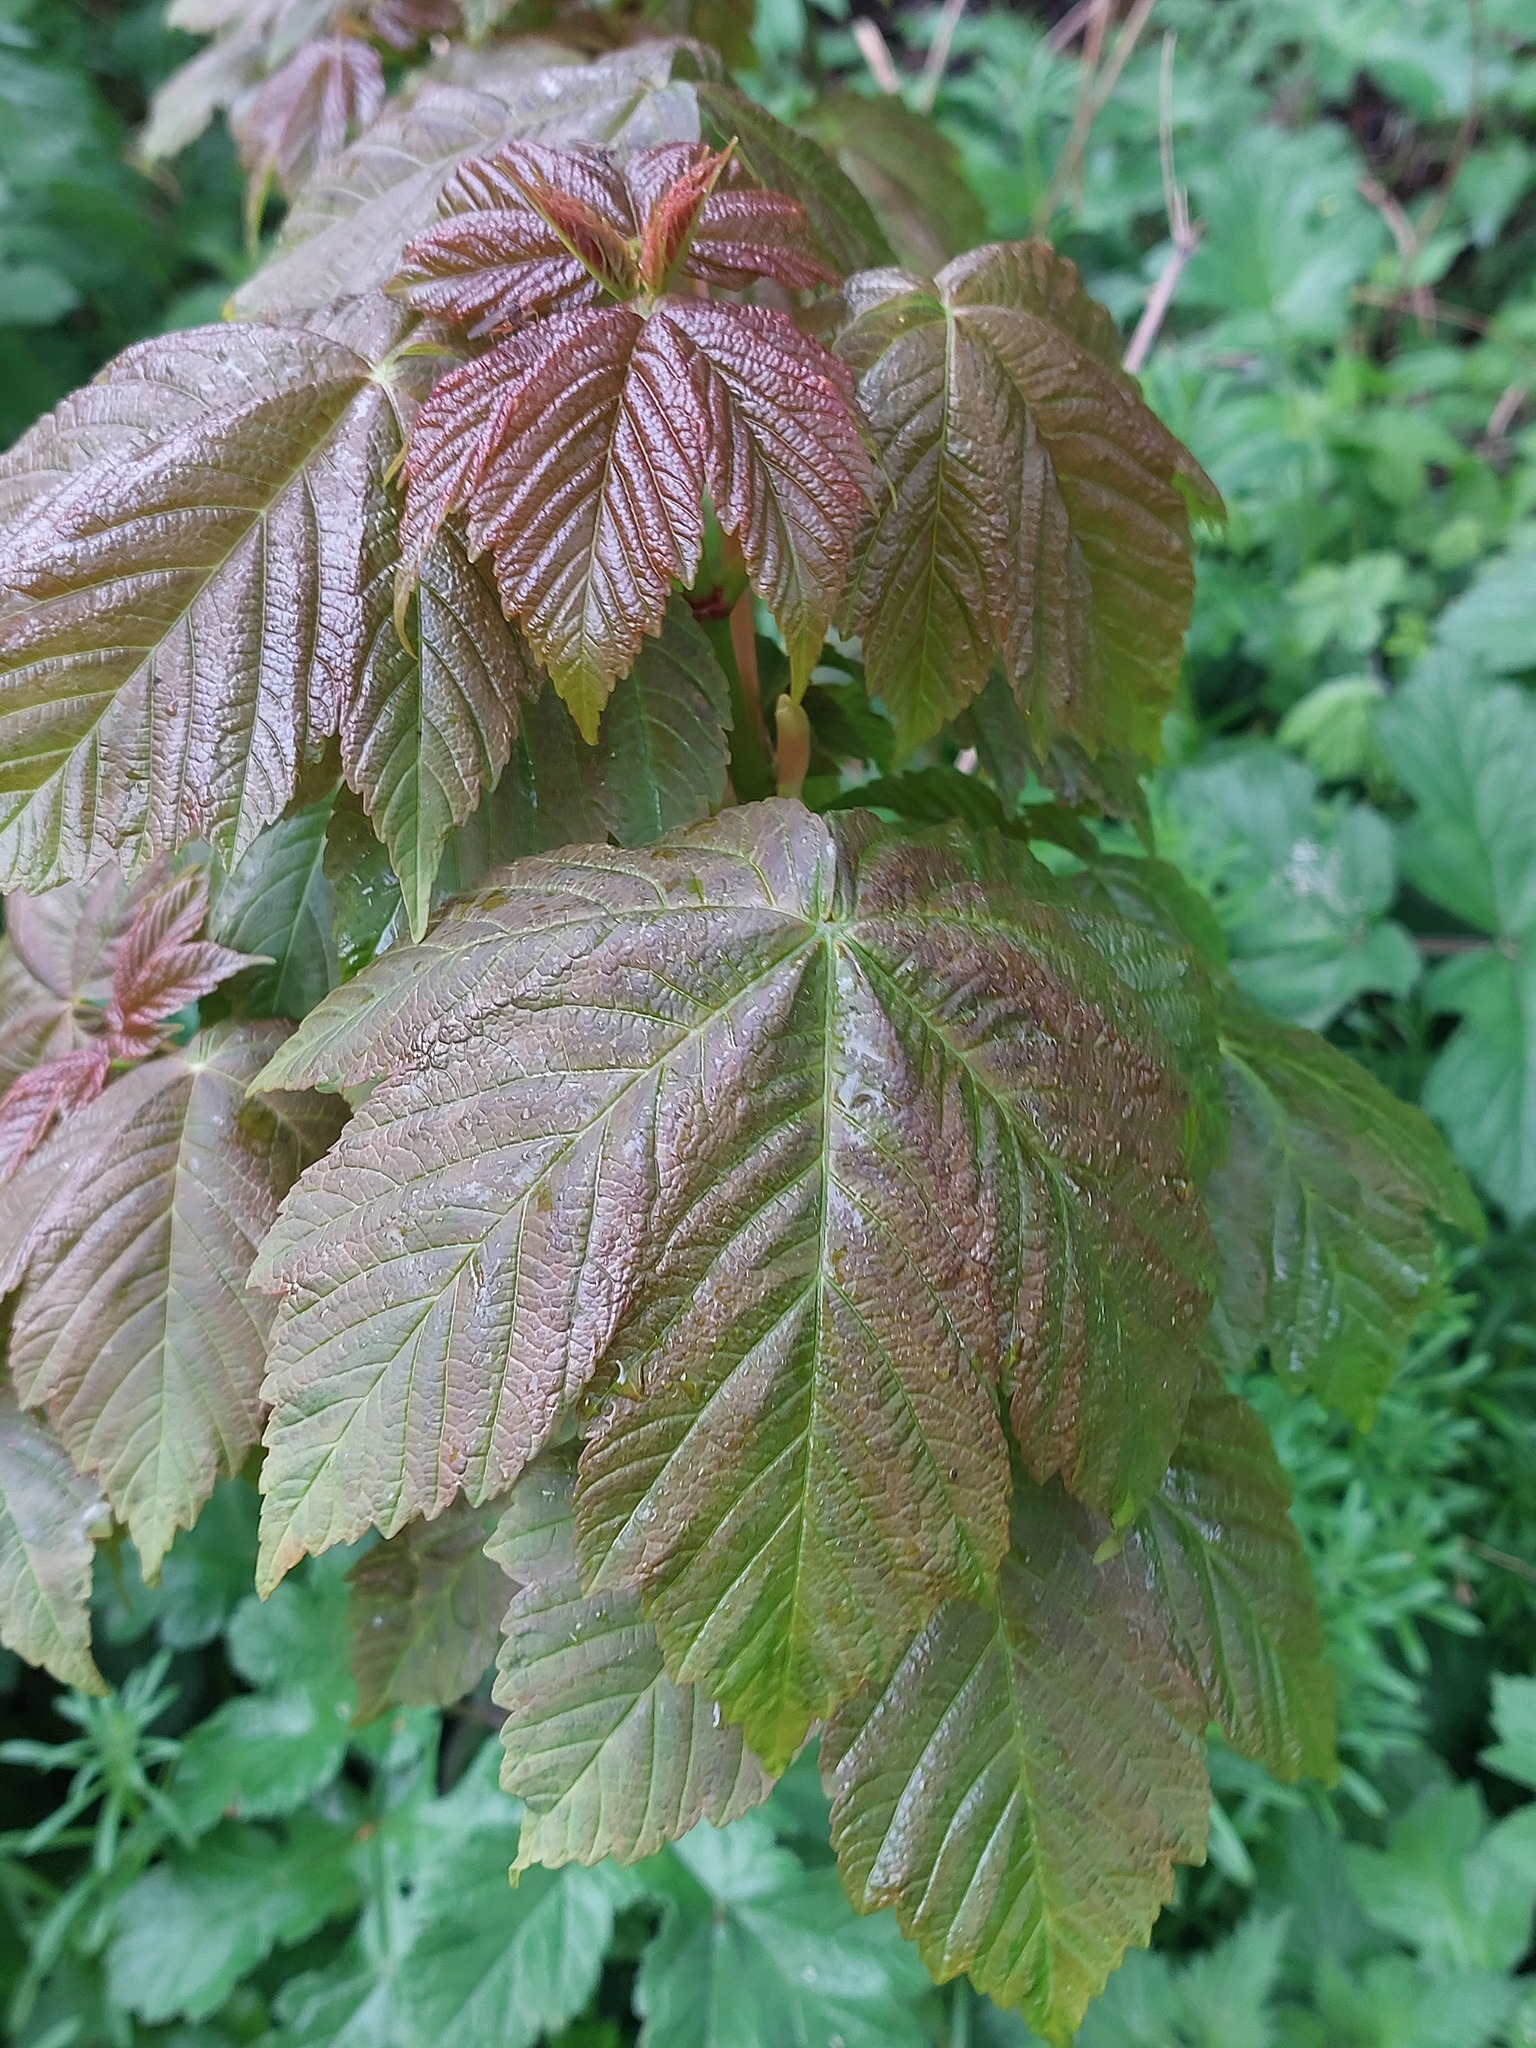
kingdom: Plantae
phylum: Tracheophyta
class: Magnoliopsida
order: Sapindales
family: Sapindaceae
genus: Acer
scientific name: Acer pseudoplatanus
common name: Sycamore
